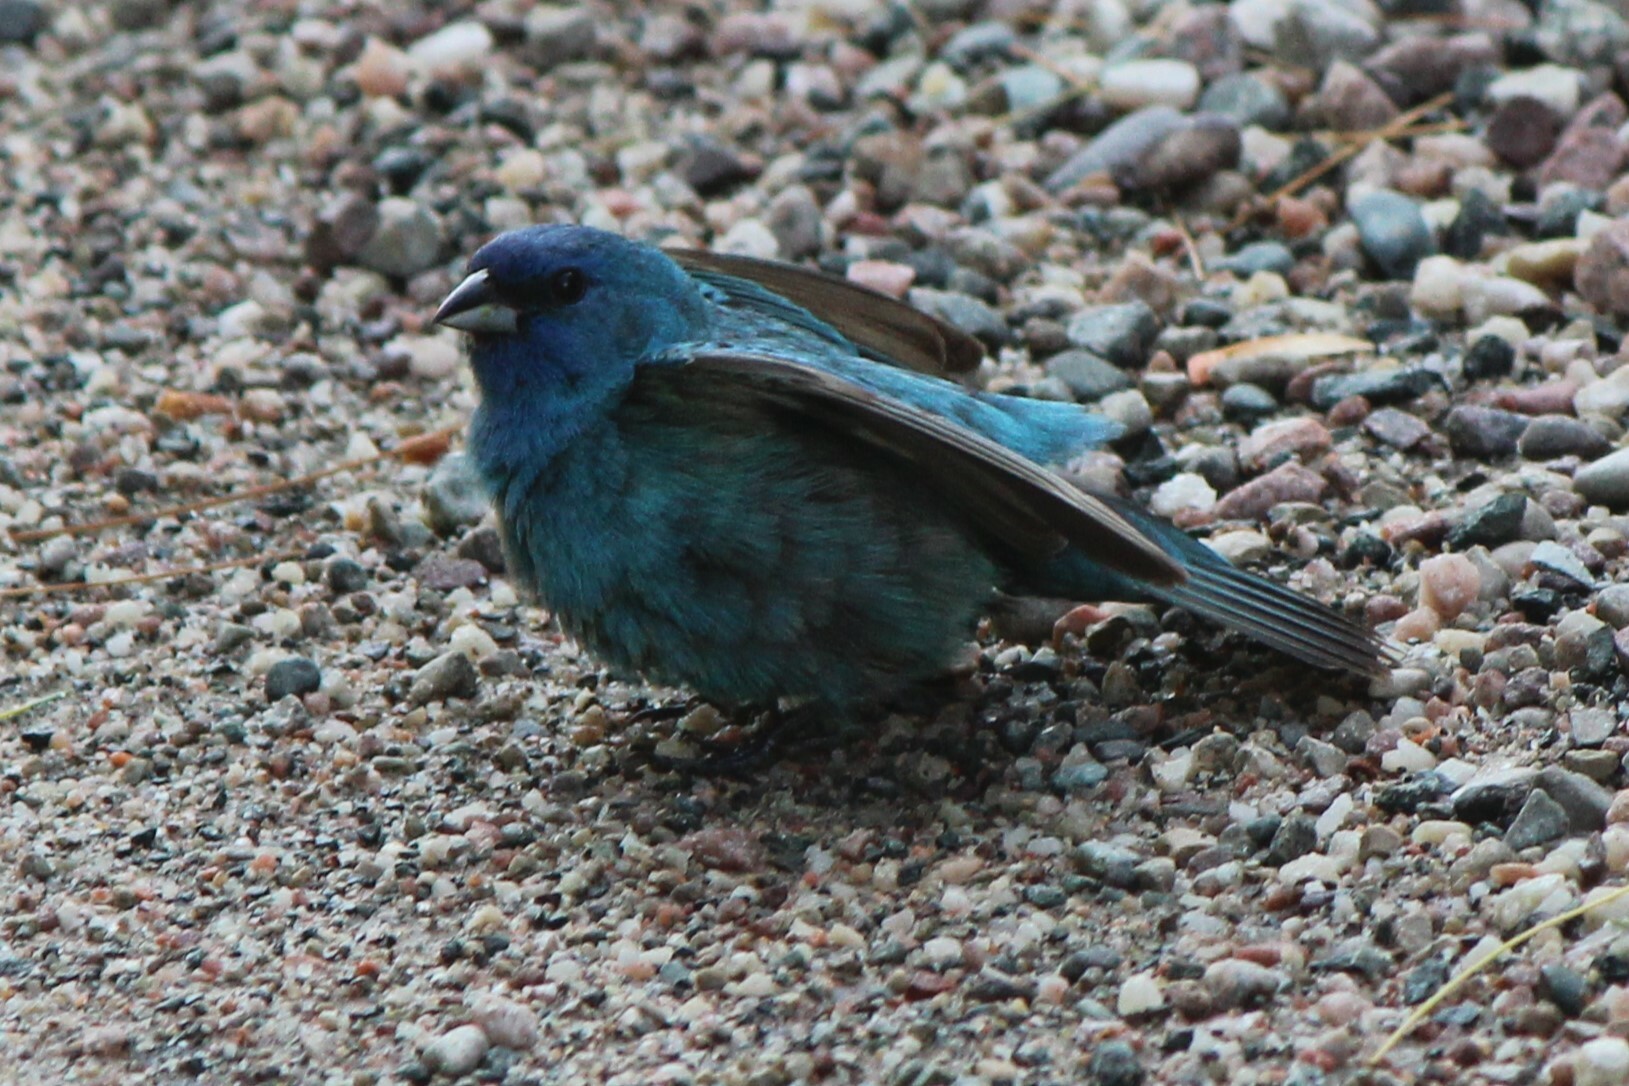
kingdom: Animalia
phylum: Chordata
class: Aves
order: Passeriformes
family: Cardinalidae
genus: Passerina
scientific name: Passerina cyanea
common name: Indigo bunting
